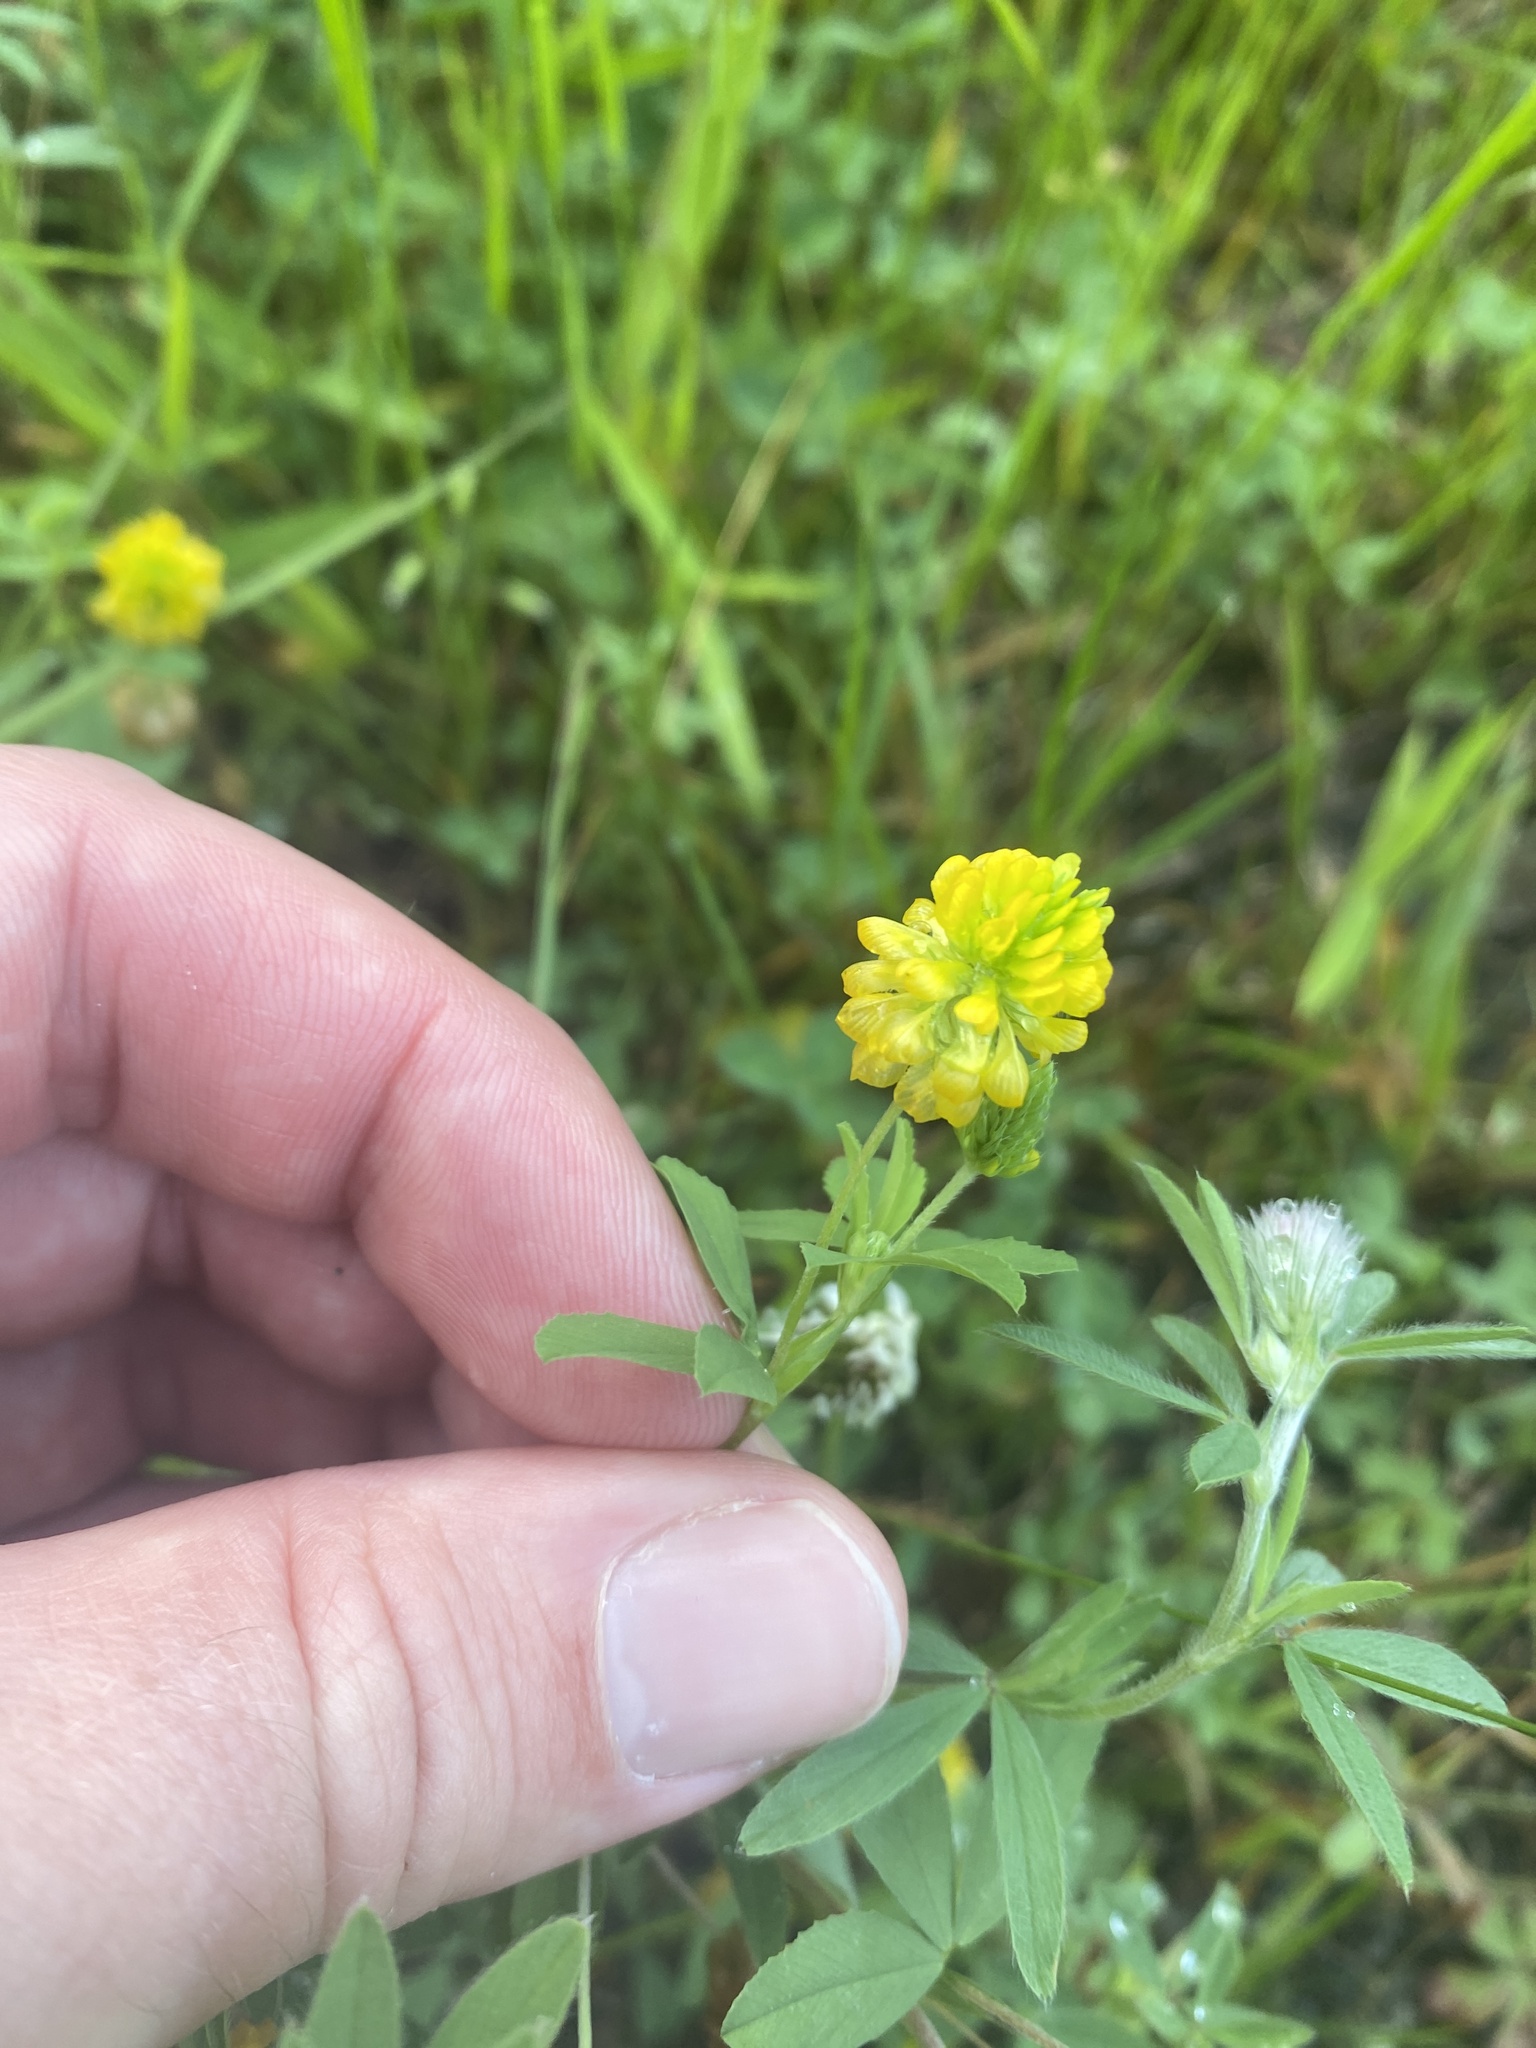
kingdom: Plantae
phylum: Tracheophyta
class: Magnoliopsida
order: Fabales
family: Fabaceae
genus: Trifolium
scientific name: Trifolium aureum
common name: Golden clover
